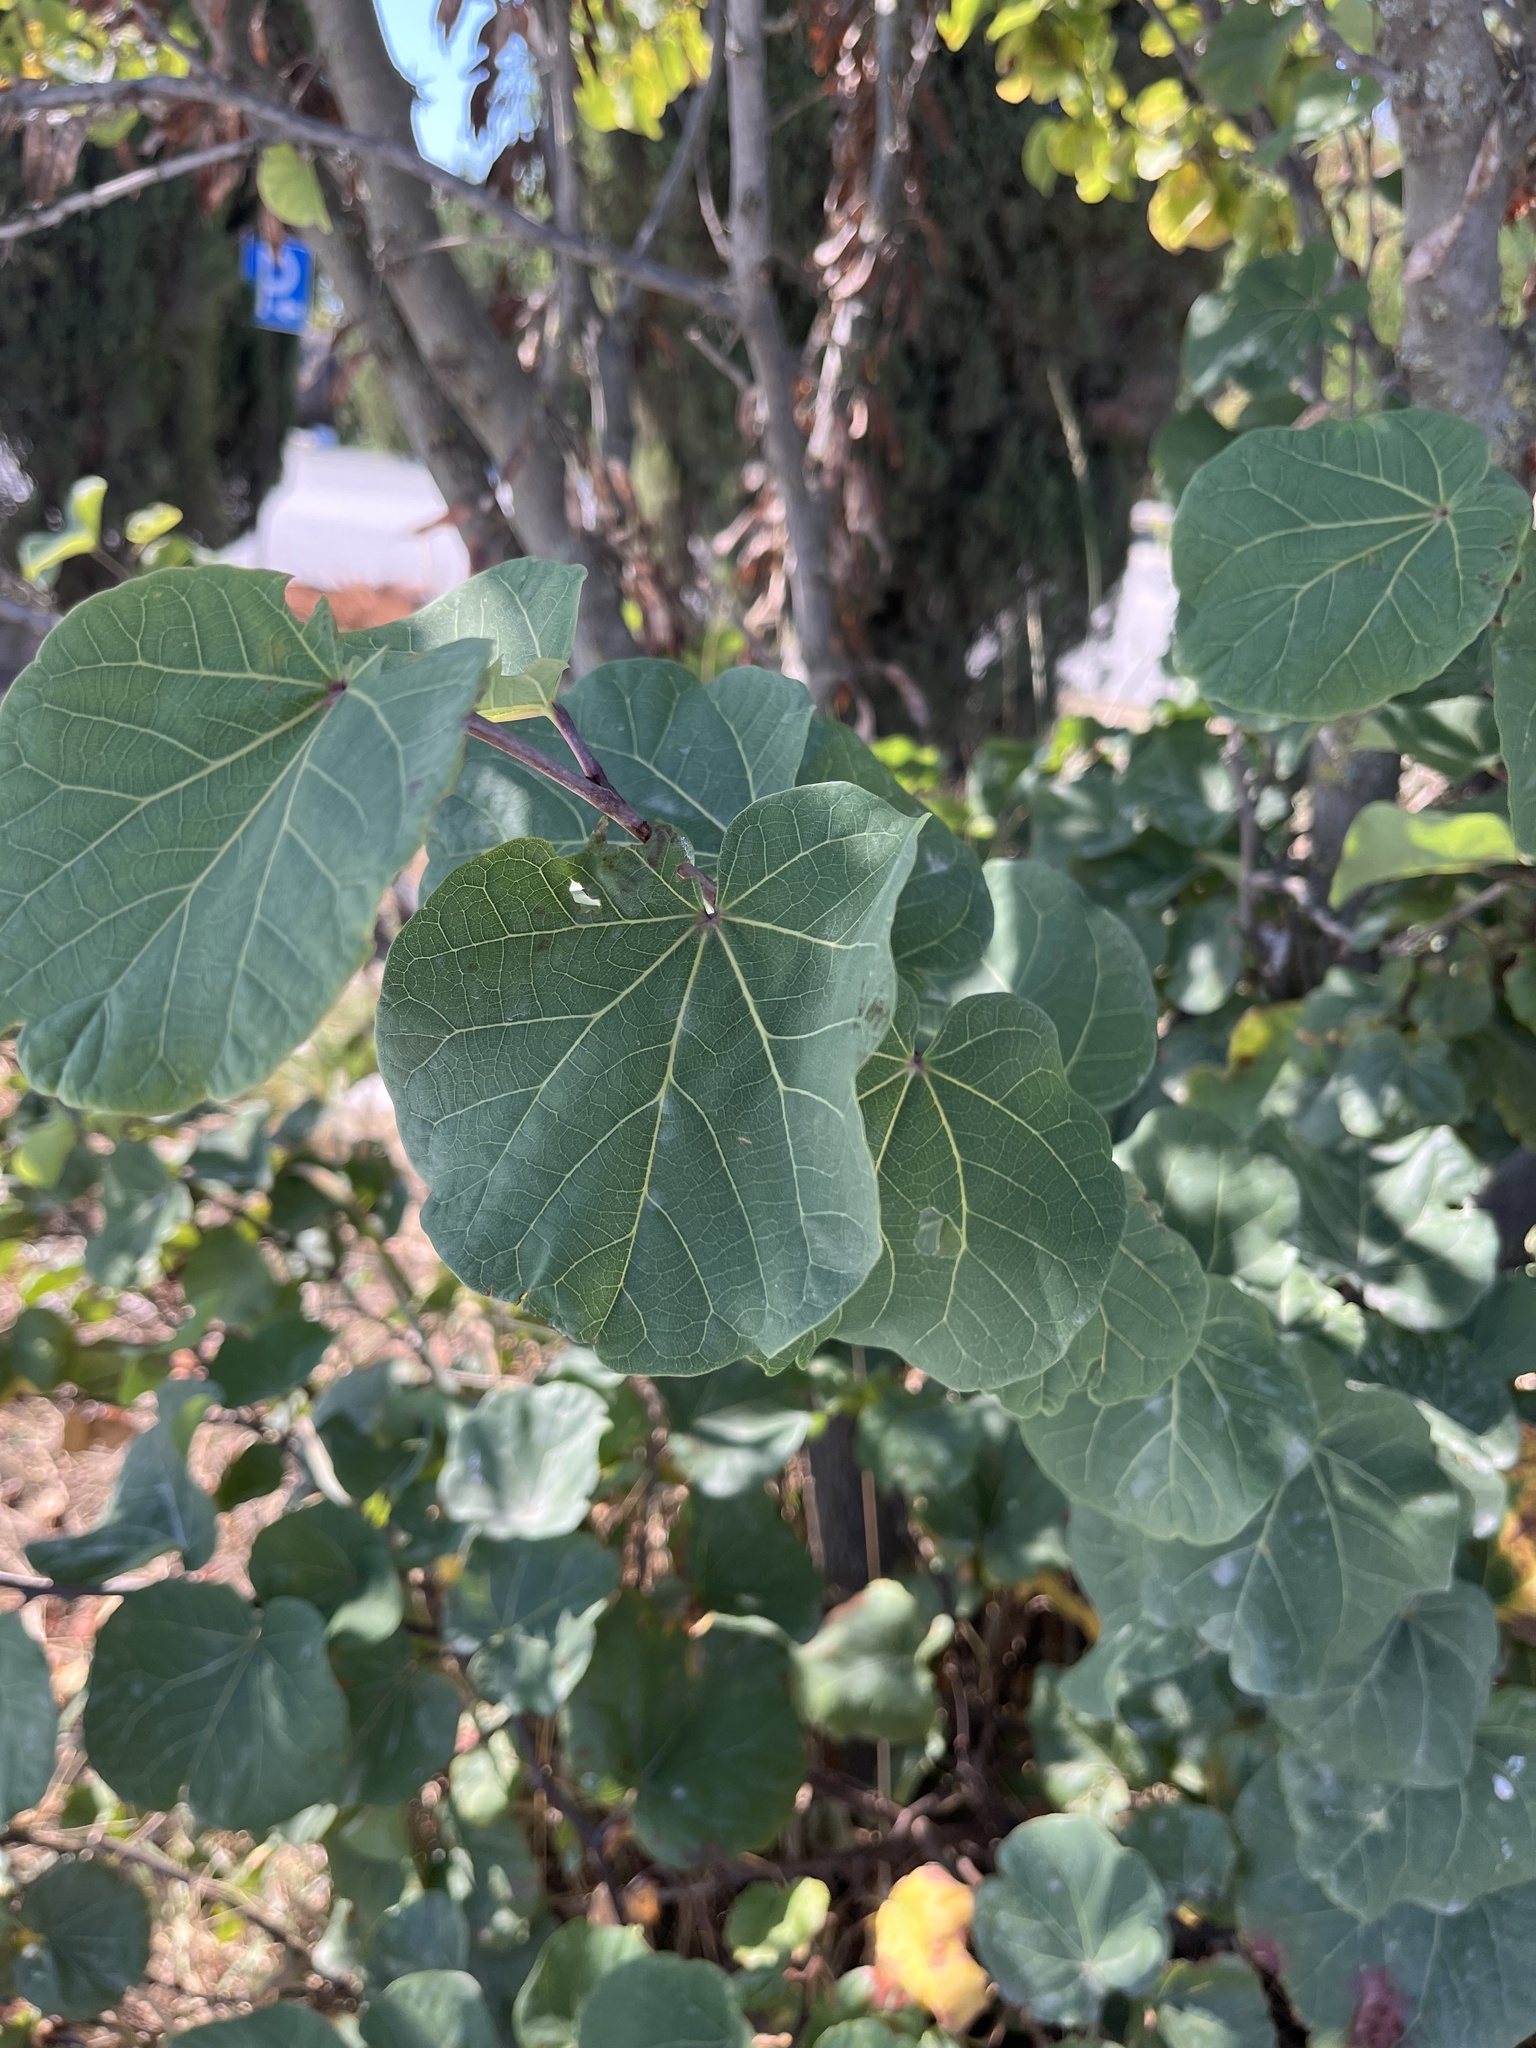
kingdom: Plantae
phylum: Tracheophyta
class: Magnoliopsida
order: Fabales
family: Fabaceae
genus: Cercis
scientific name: Cercis siliquastrum
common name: Judas tree
